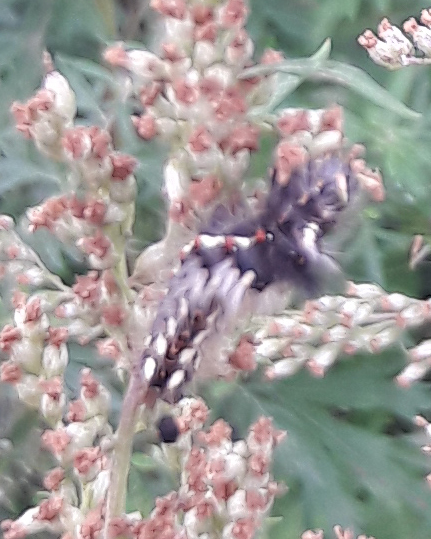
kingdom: Animalia
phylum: Arthropoda
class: Insecta
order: Lepidoptera
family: Noctuidae
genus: Acronicta
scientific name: Acronicta rumicis
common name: Knot grass
